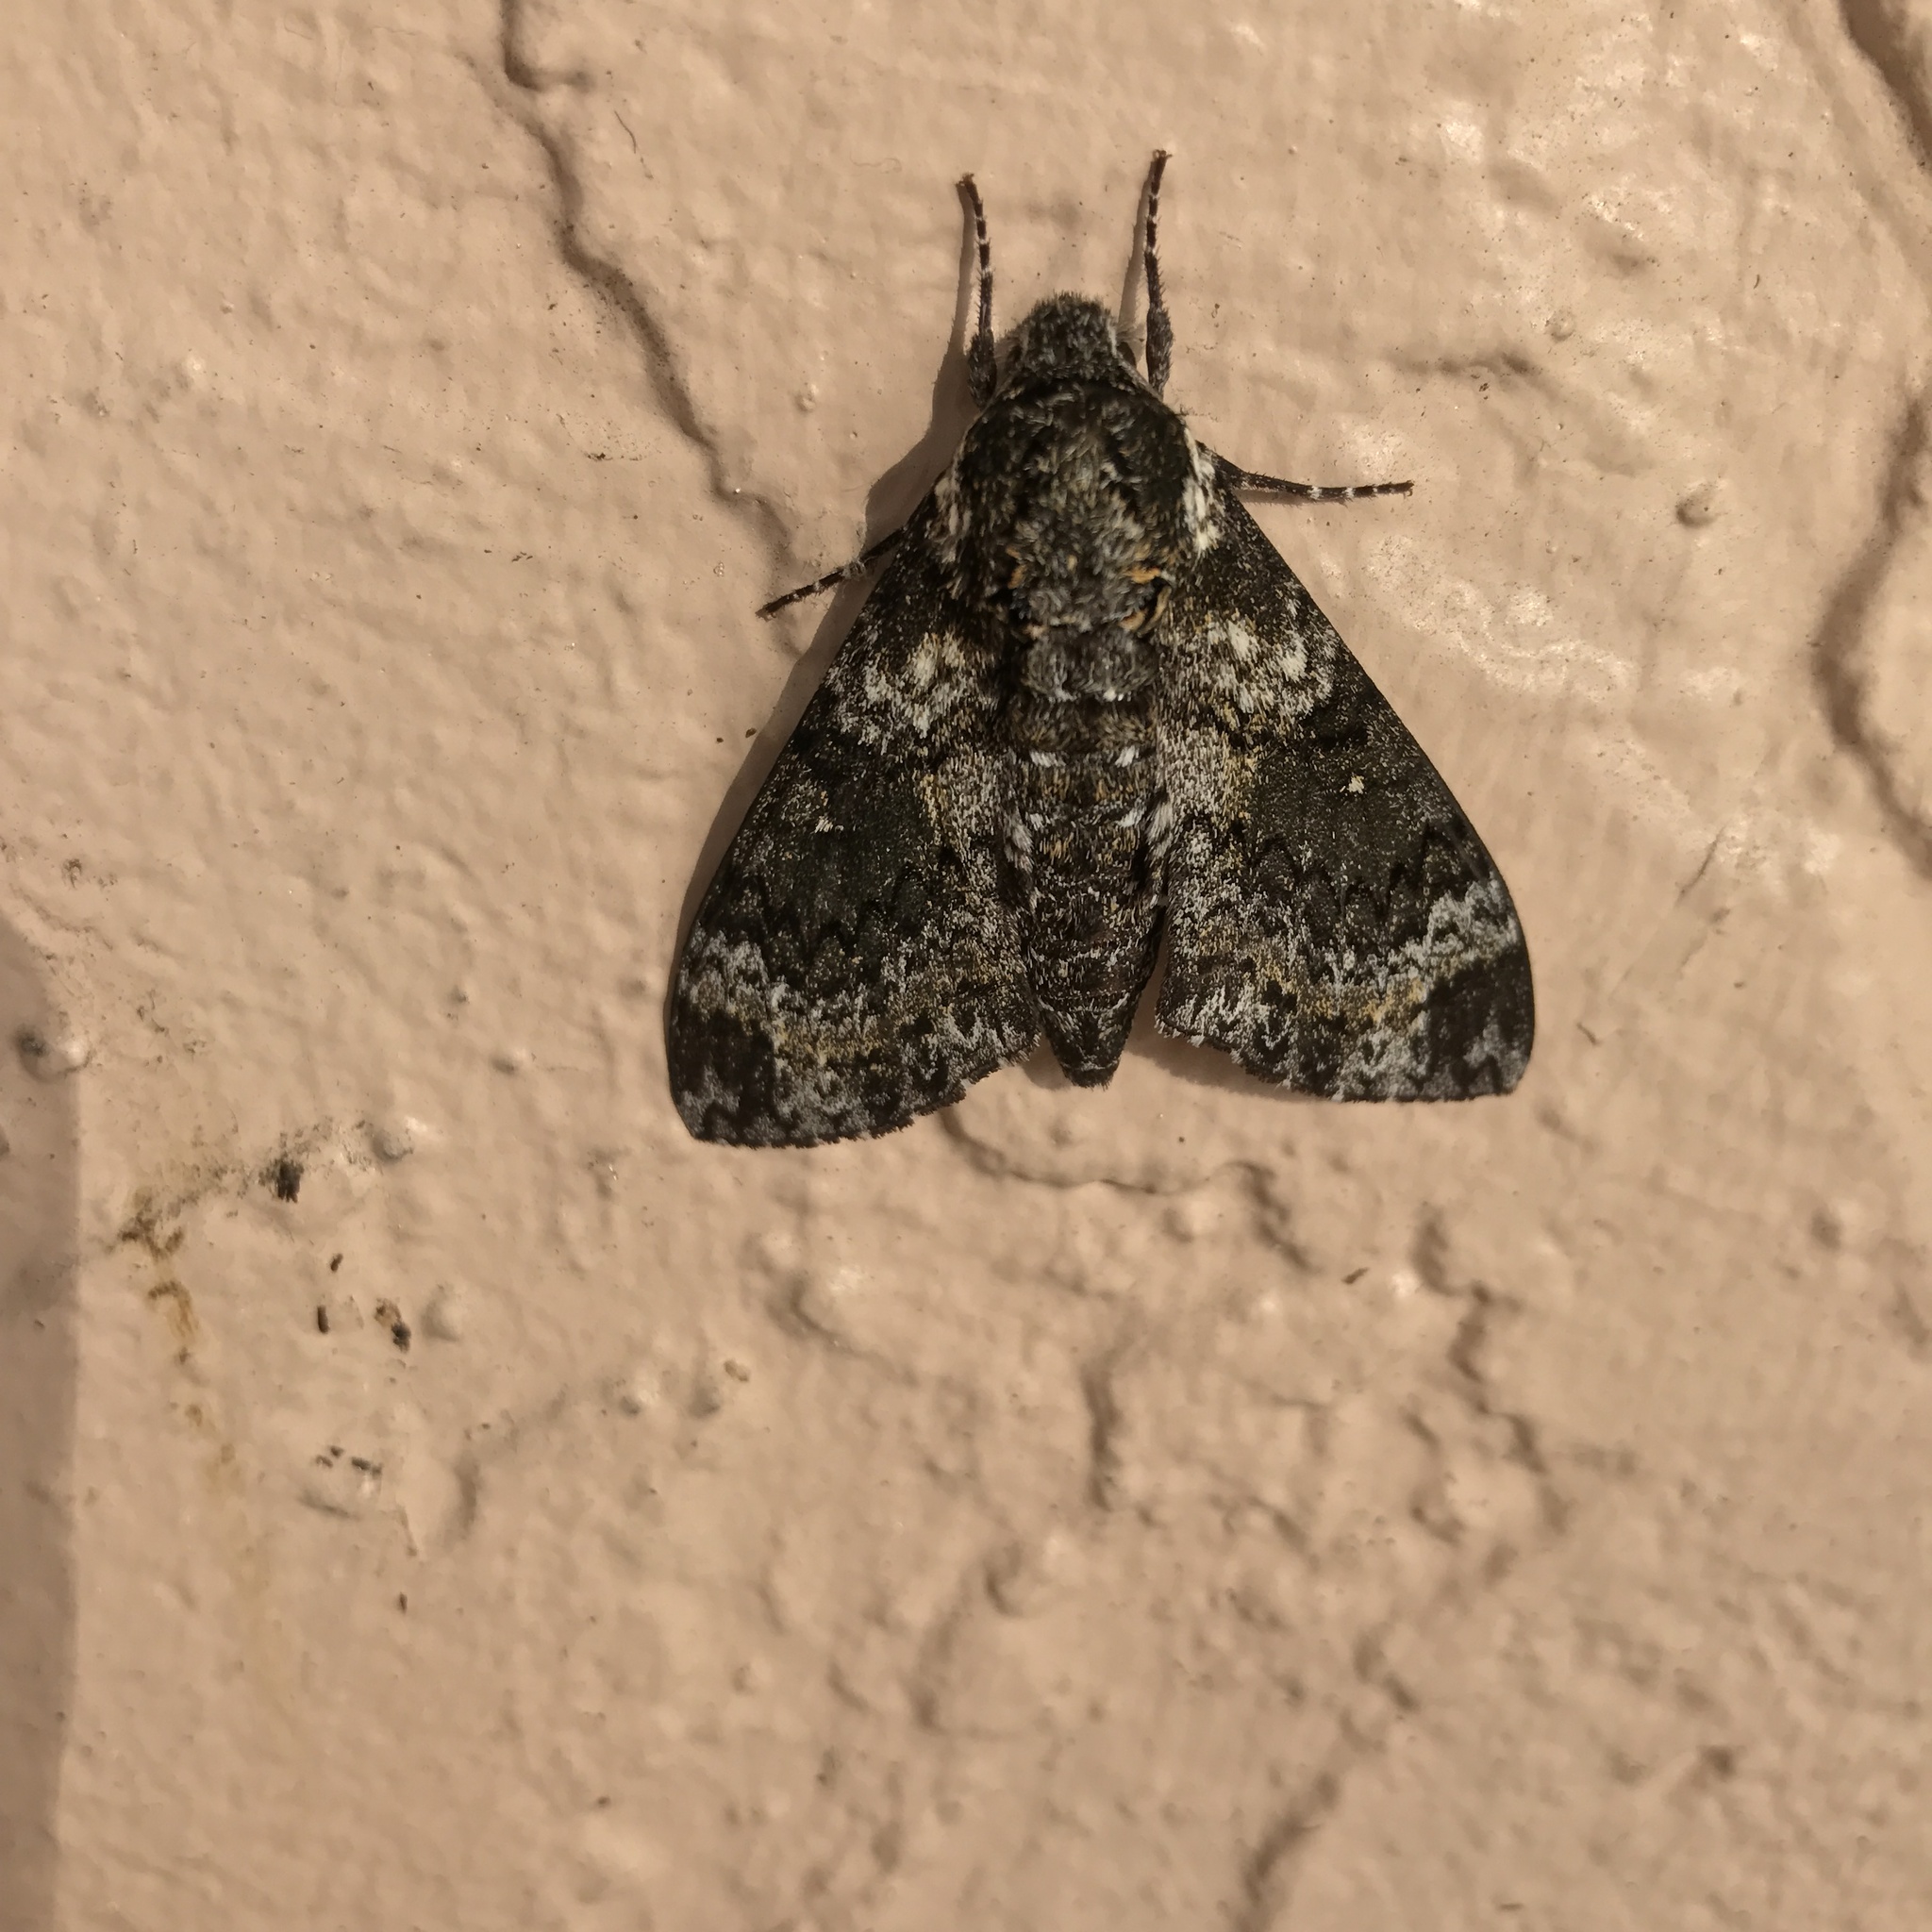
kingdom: Animalia
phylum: Arthropoda
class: Insecta
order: Lepidoptera
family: Sphingidae
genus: Dolba
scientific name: Dolba hyloeus
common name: Pawpaw sphinx
